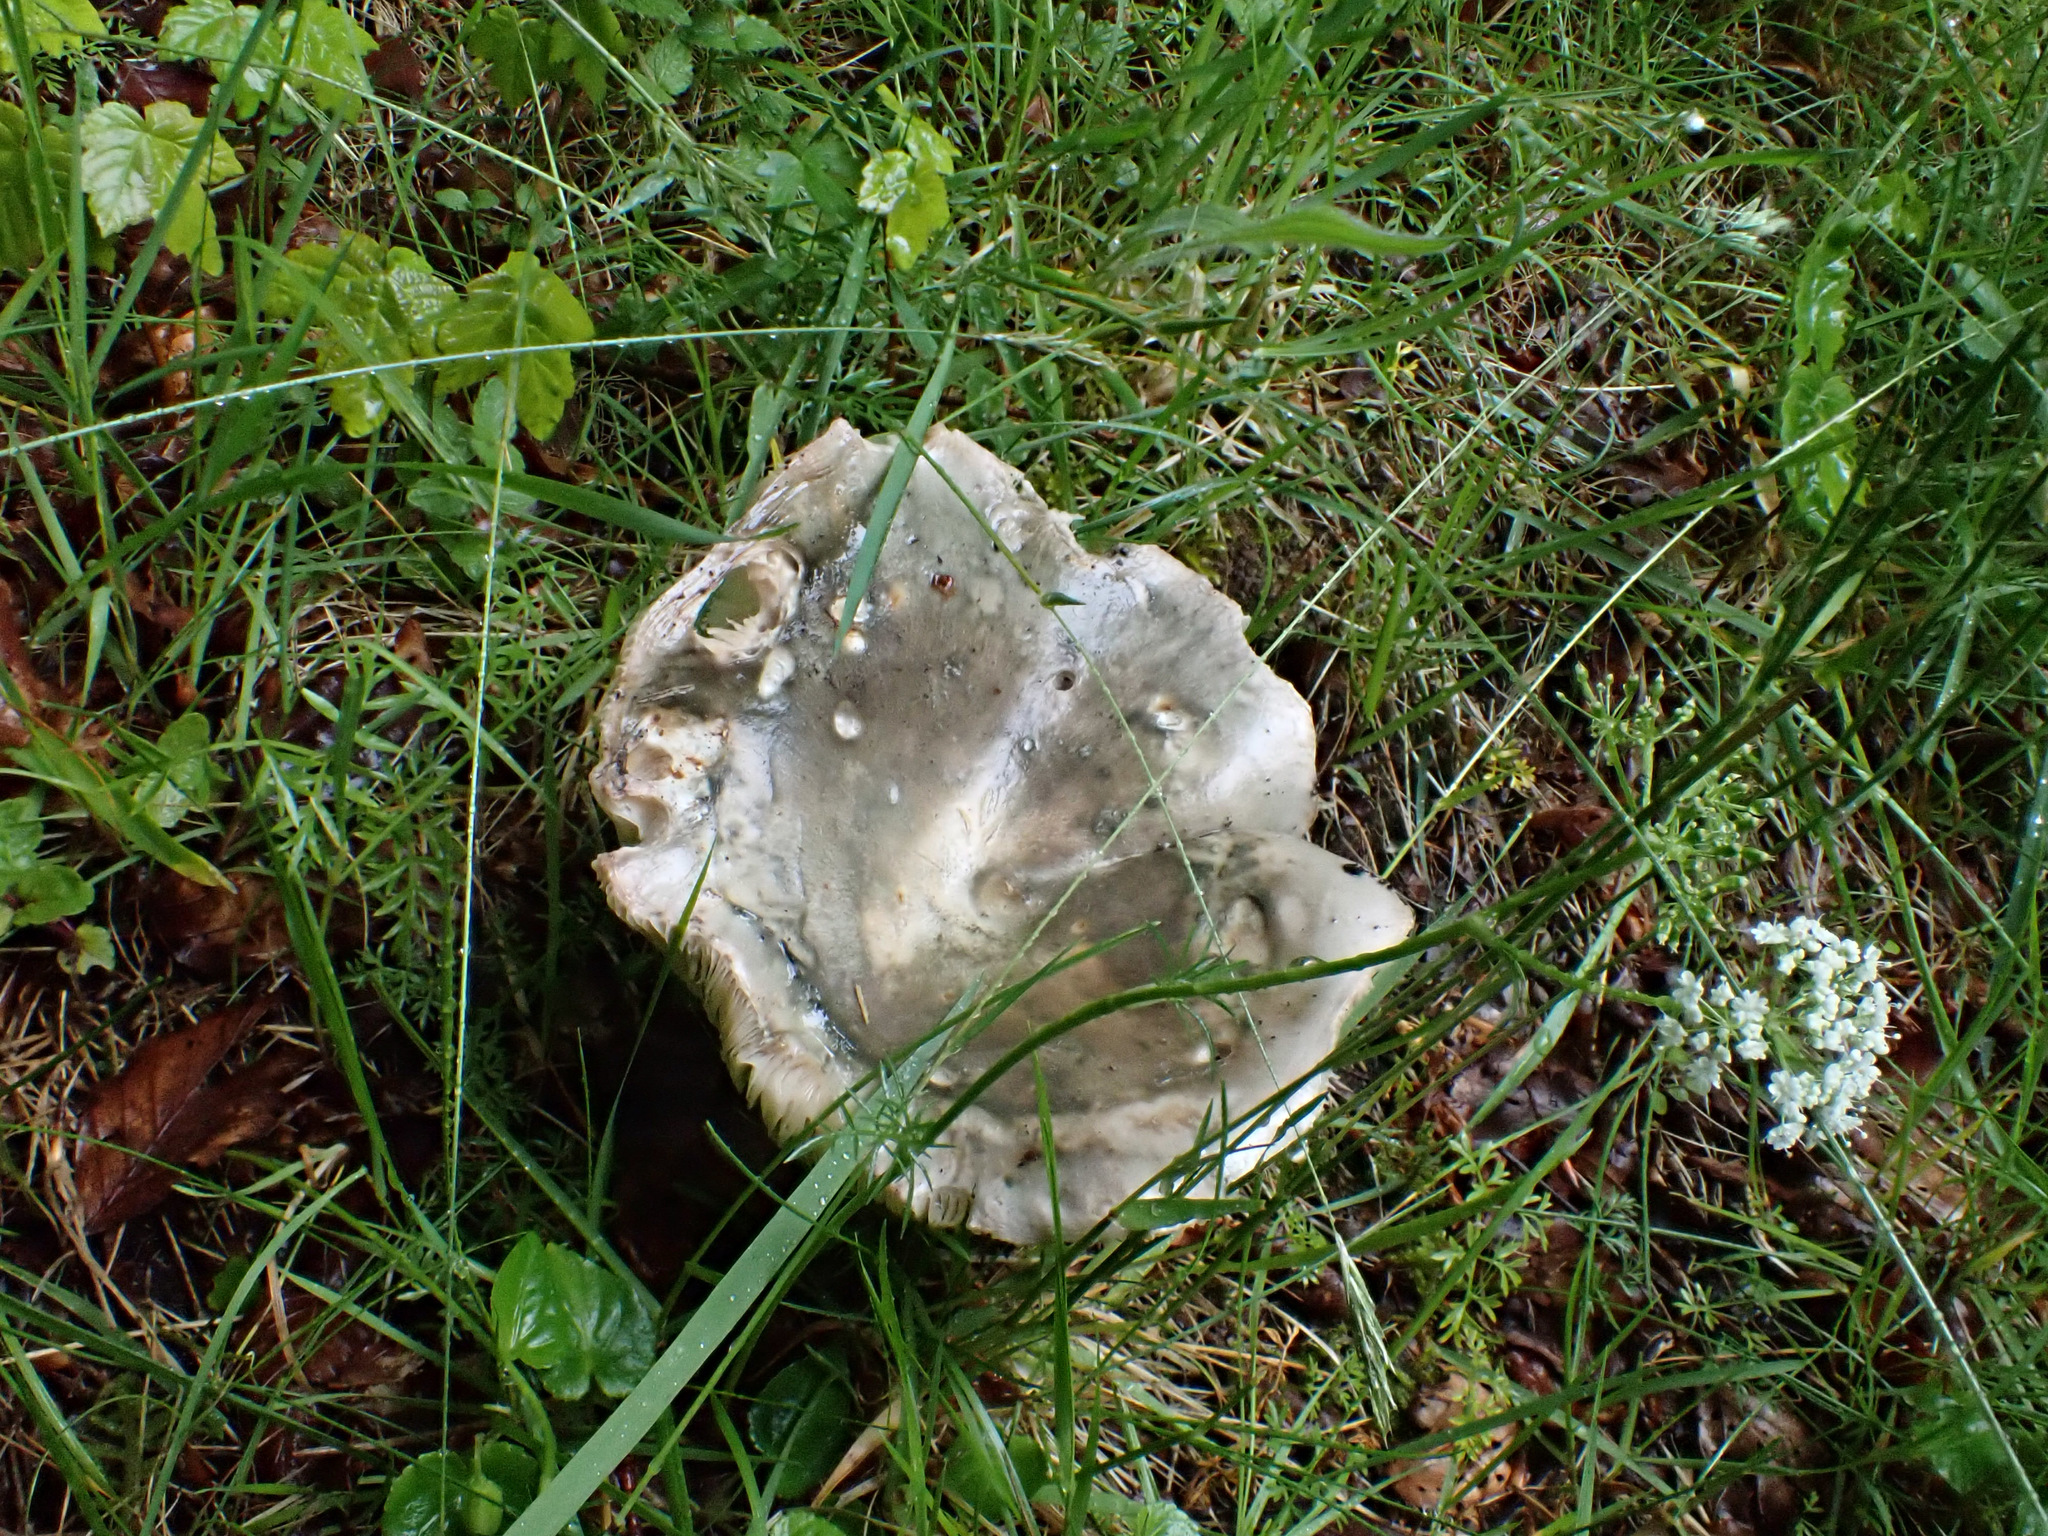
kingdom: Fungi
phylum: Basidiomycota
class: Agaricomycetes
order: Russulales
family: Russulaceae
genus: Russula
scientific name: Russula cyanoxantha
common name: Charcoal burner
